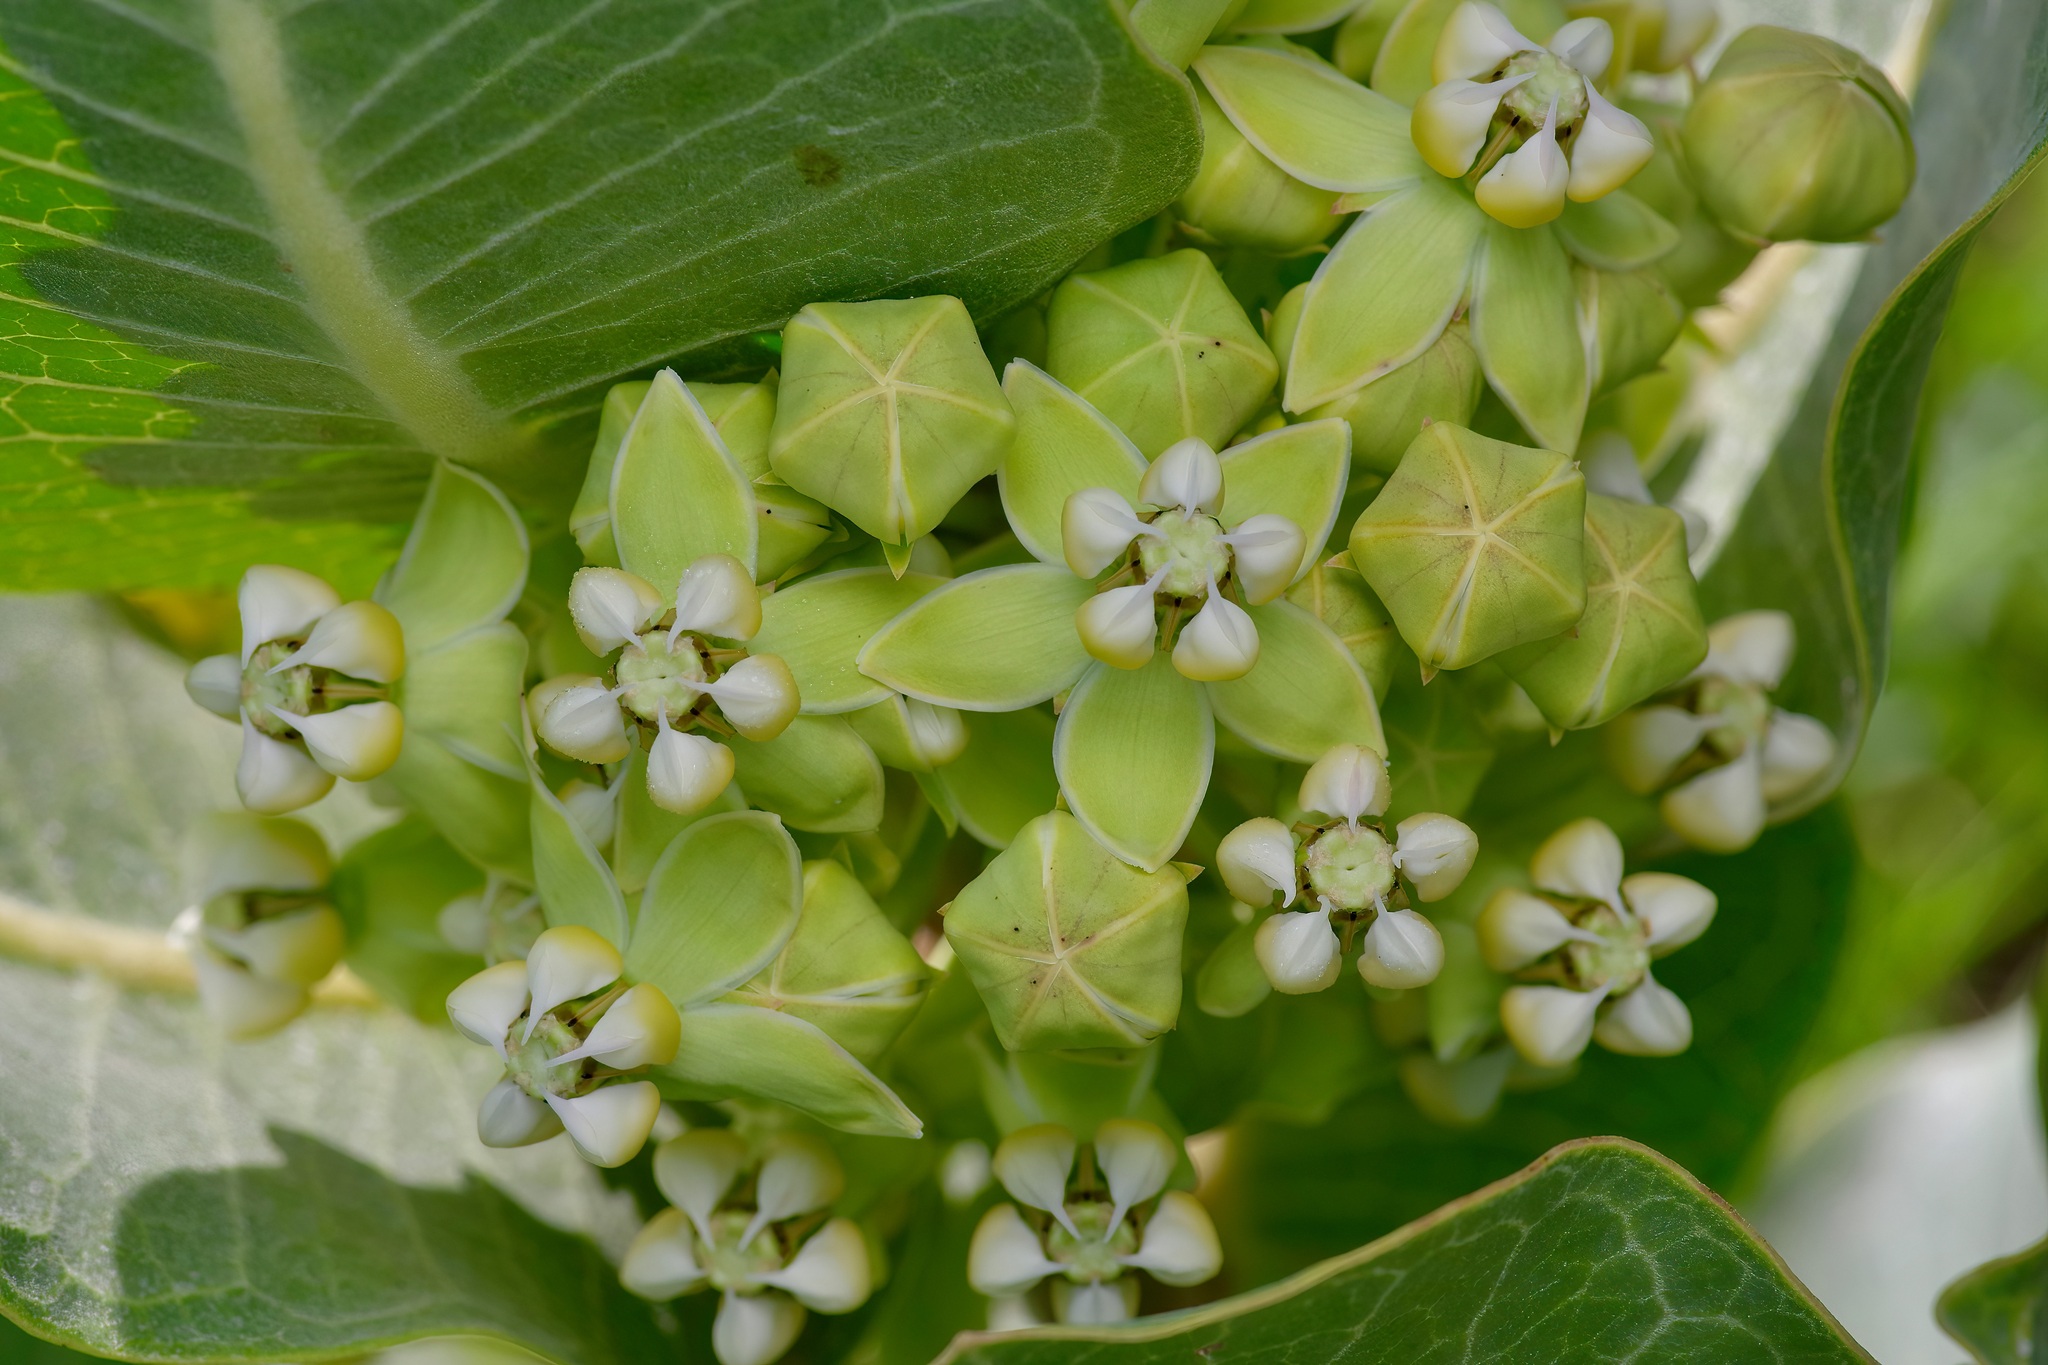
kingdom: Plantae
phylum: Tracheophyta
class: Magnoliopsida
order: Gentianales
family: Apocynaceae
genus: Asclepias
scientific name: Asclepias latifolia
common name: Broadleaf milkweed
